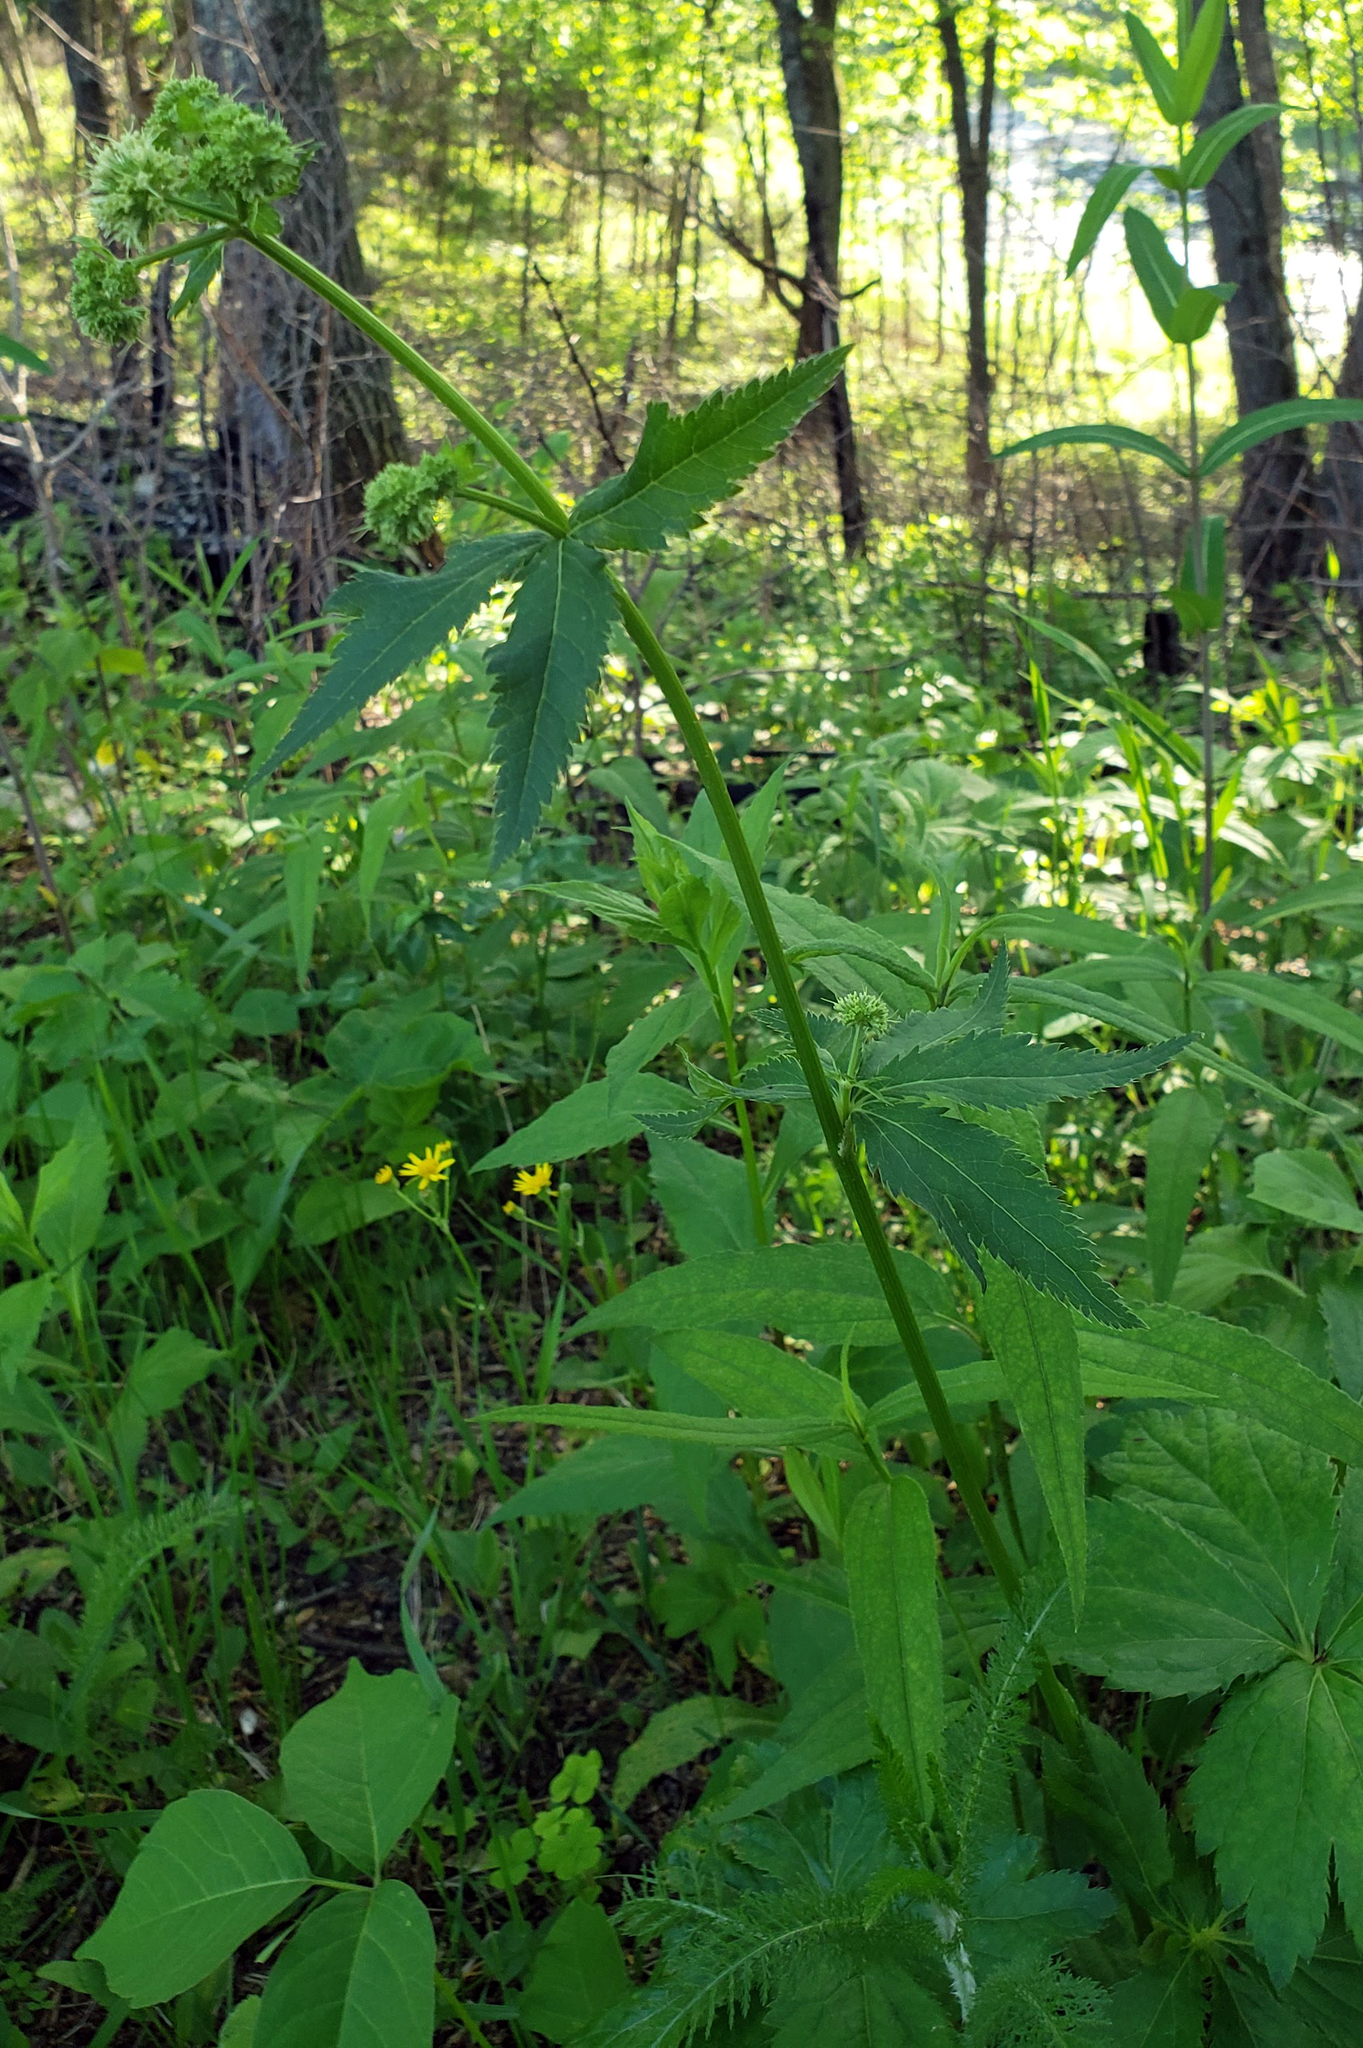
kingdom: Plantae
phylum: Tracheophyta
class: Magnoliopsida
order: Apiales
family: Apiaceae
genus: Sanicula
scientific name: Sanicula marilandica
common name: Black snakeroot
